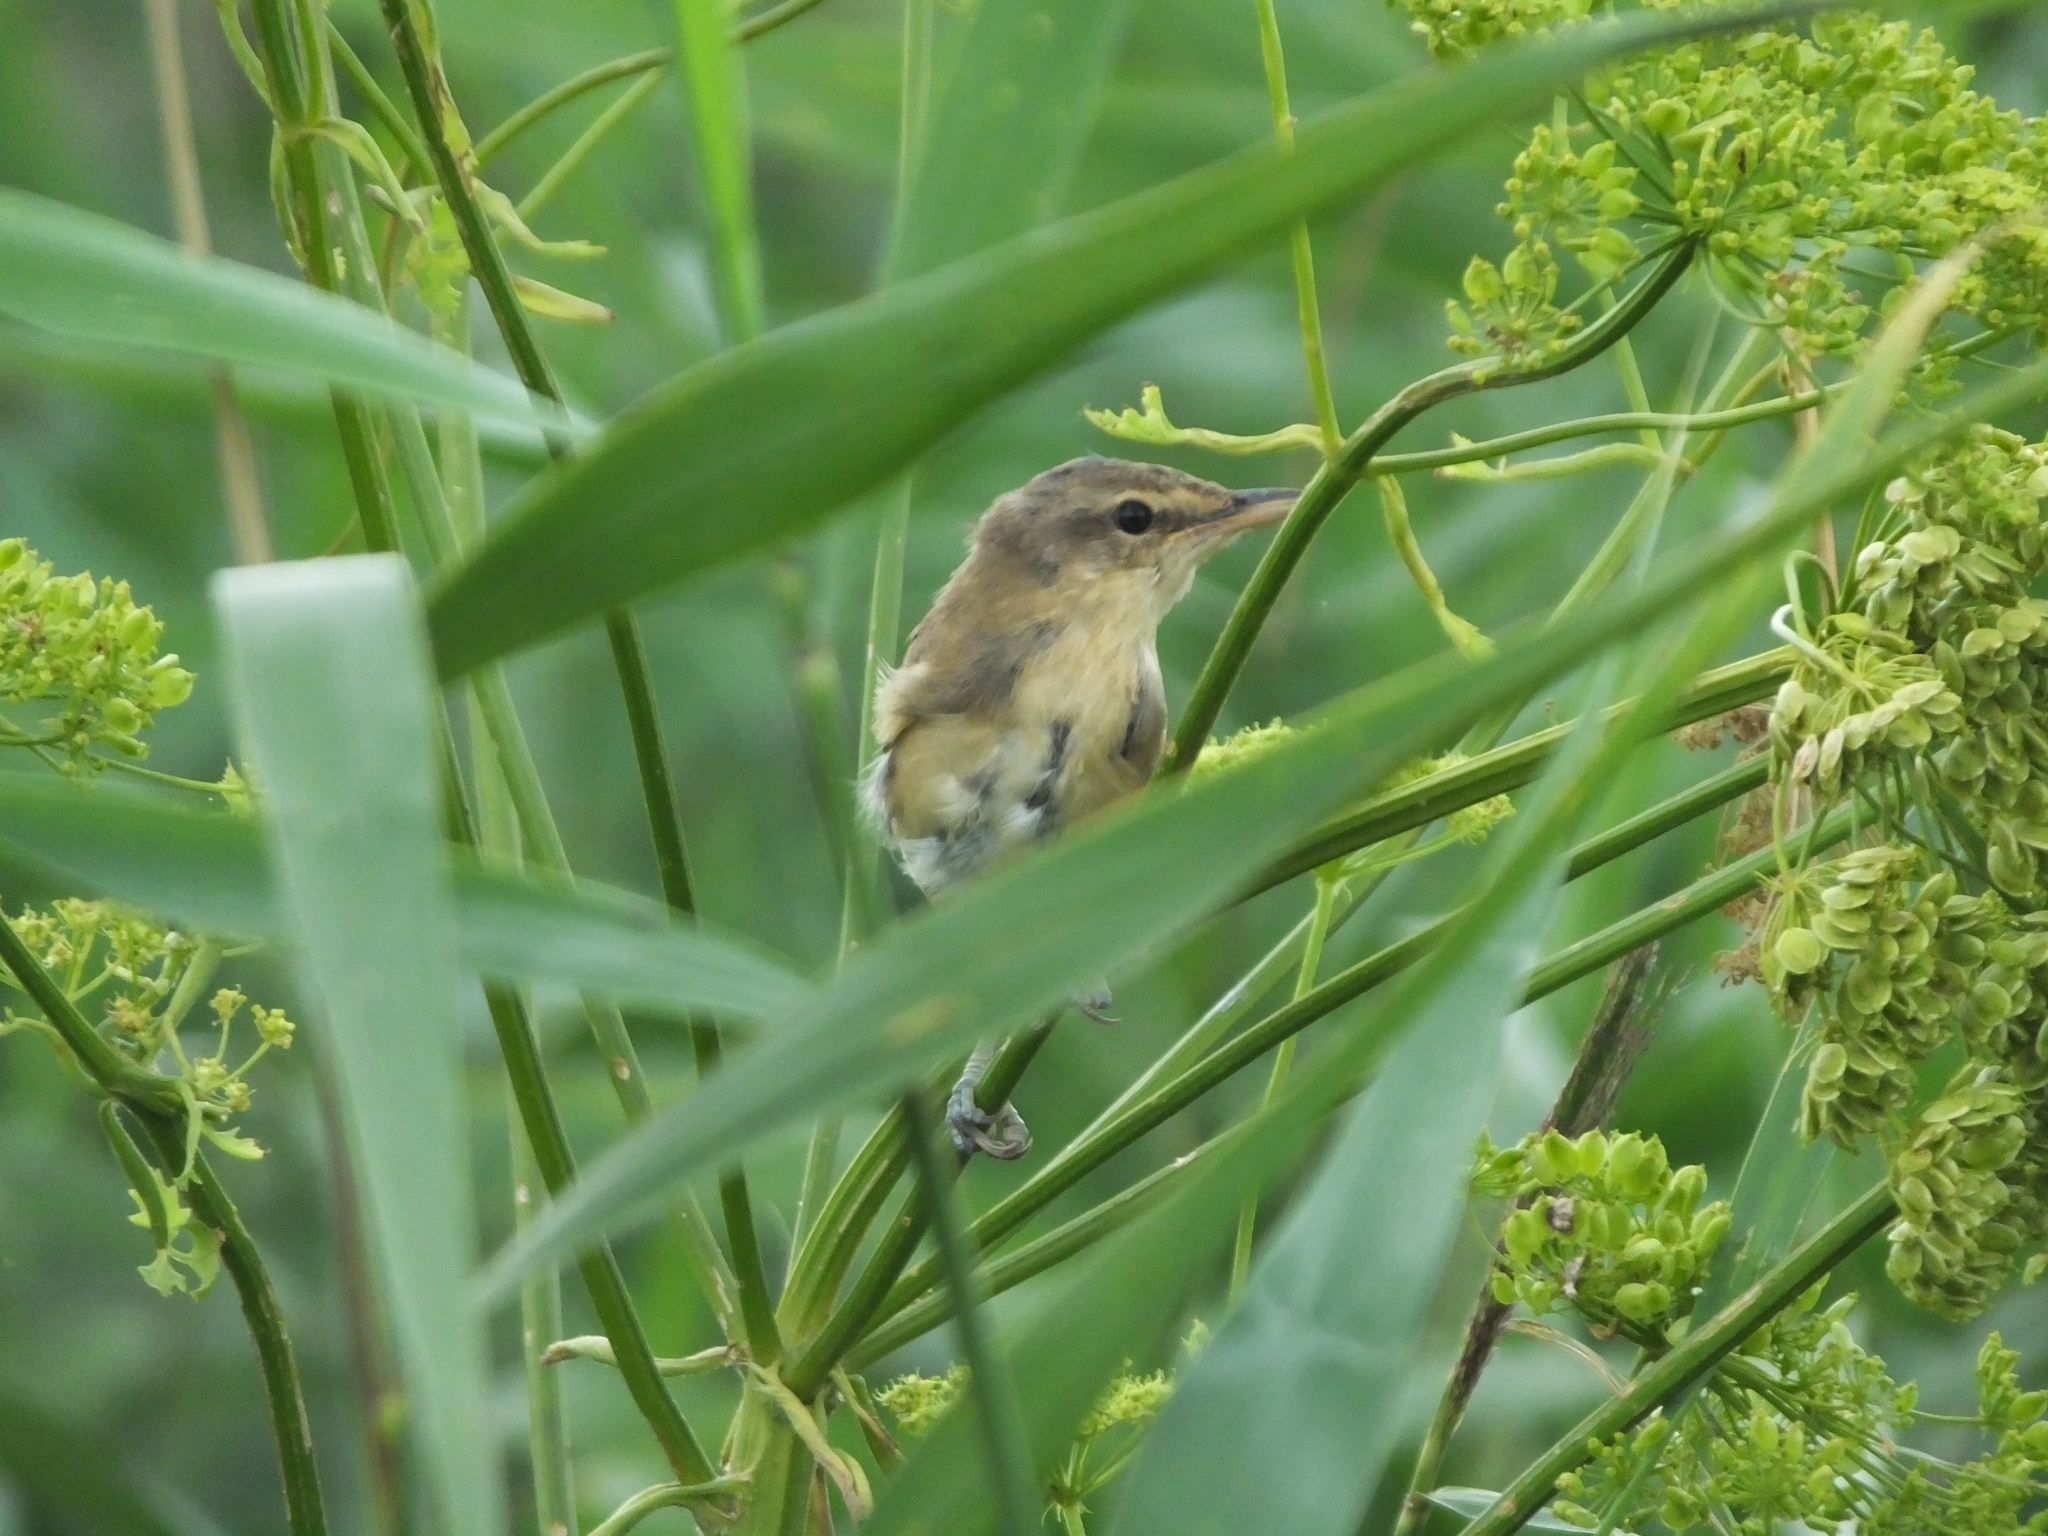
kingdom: Animalia
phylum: Chordata
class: Aves
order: Passeriformes
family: Acrocephalidae
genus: Acrocephalus
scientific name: Acrocephalus arundinaceus
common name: Great reed warbler
